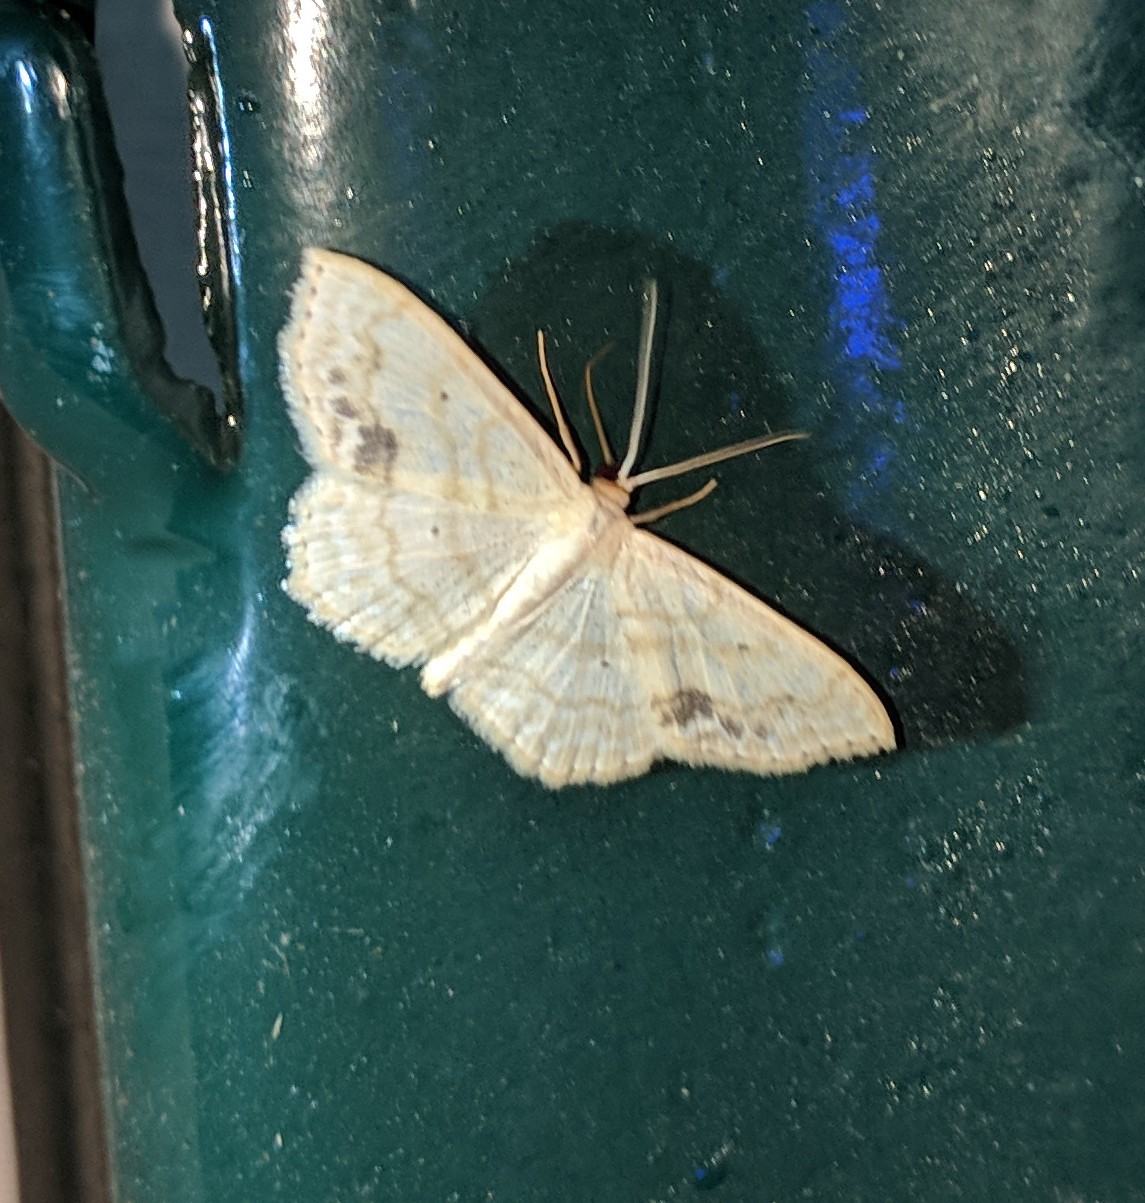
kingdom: Animalia
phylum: Arthropoda
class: Insecta
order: Lepidoptera
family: Geometridae
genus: Scopula
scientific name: Scopula limboundata
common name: Large lace border
